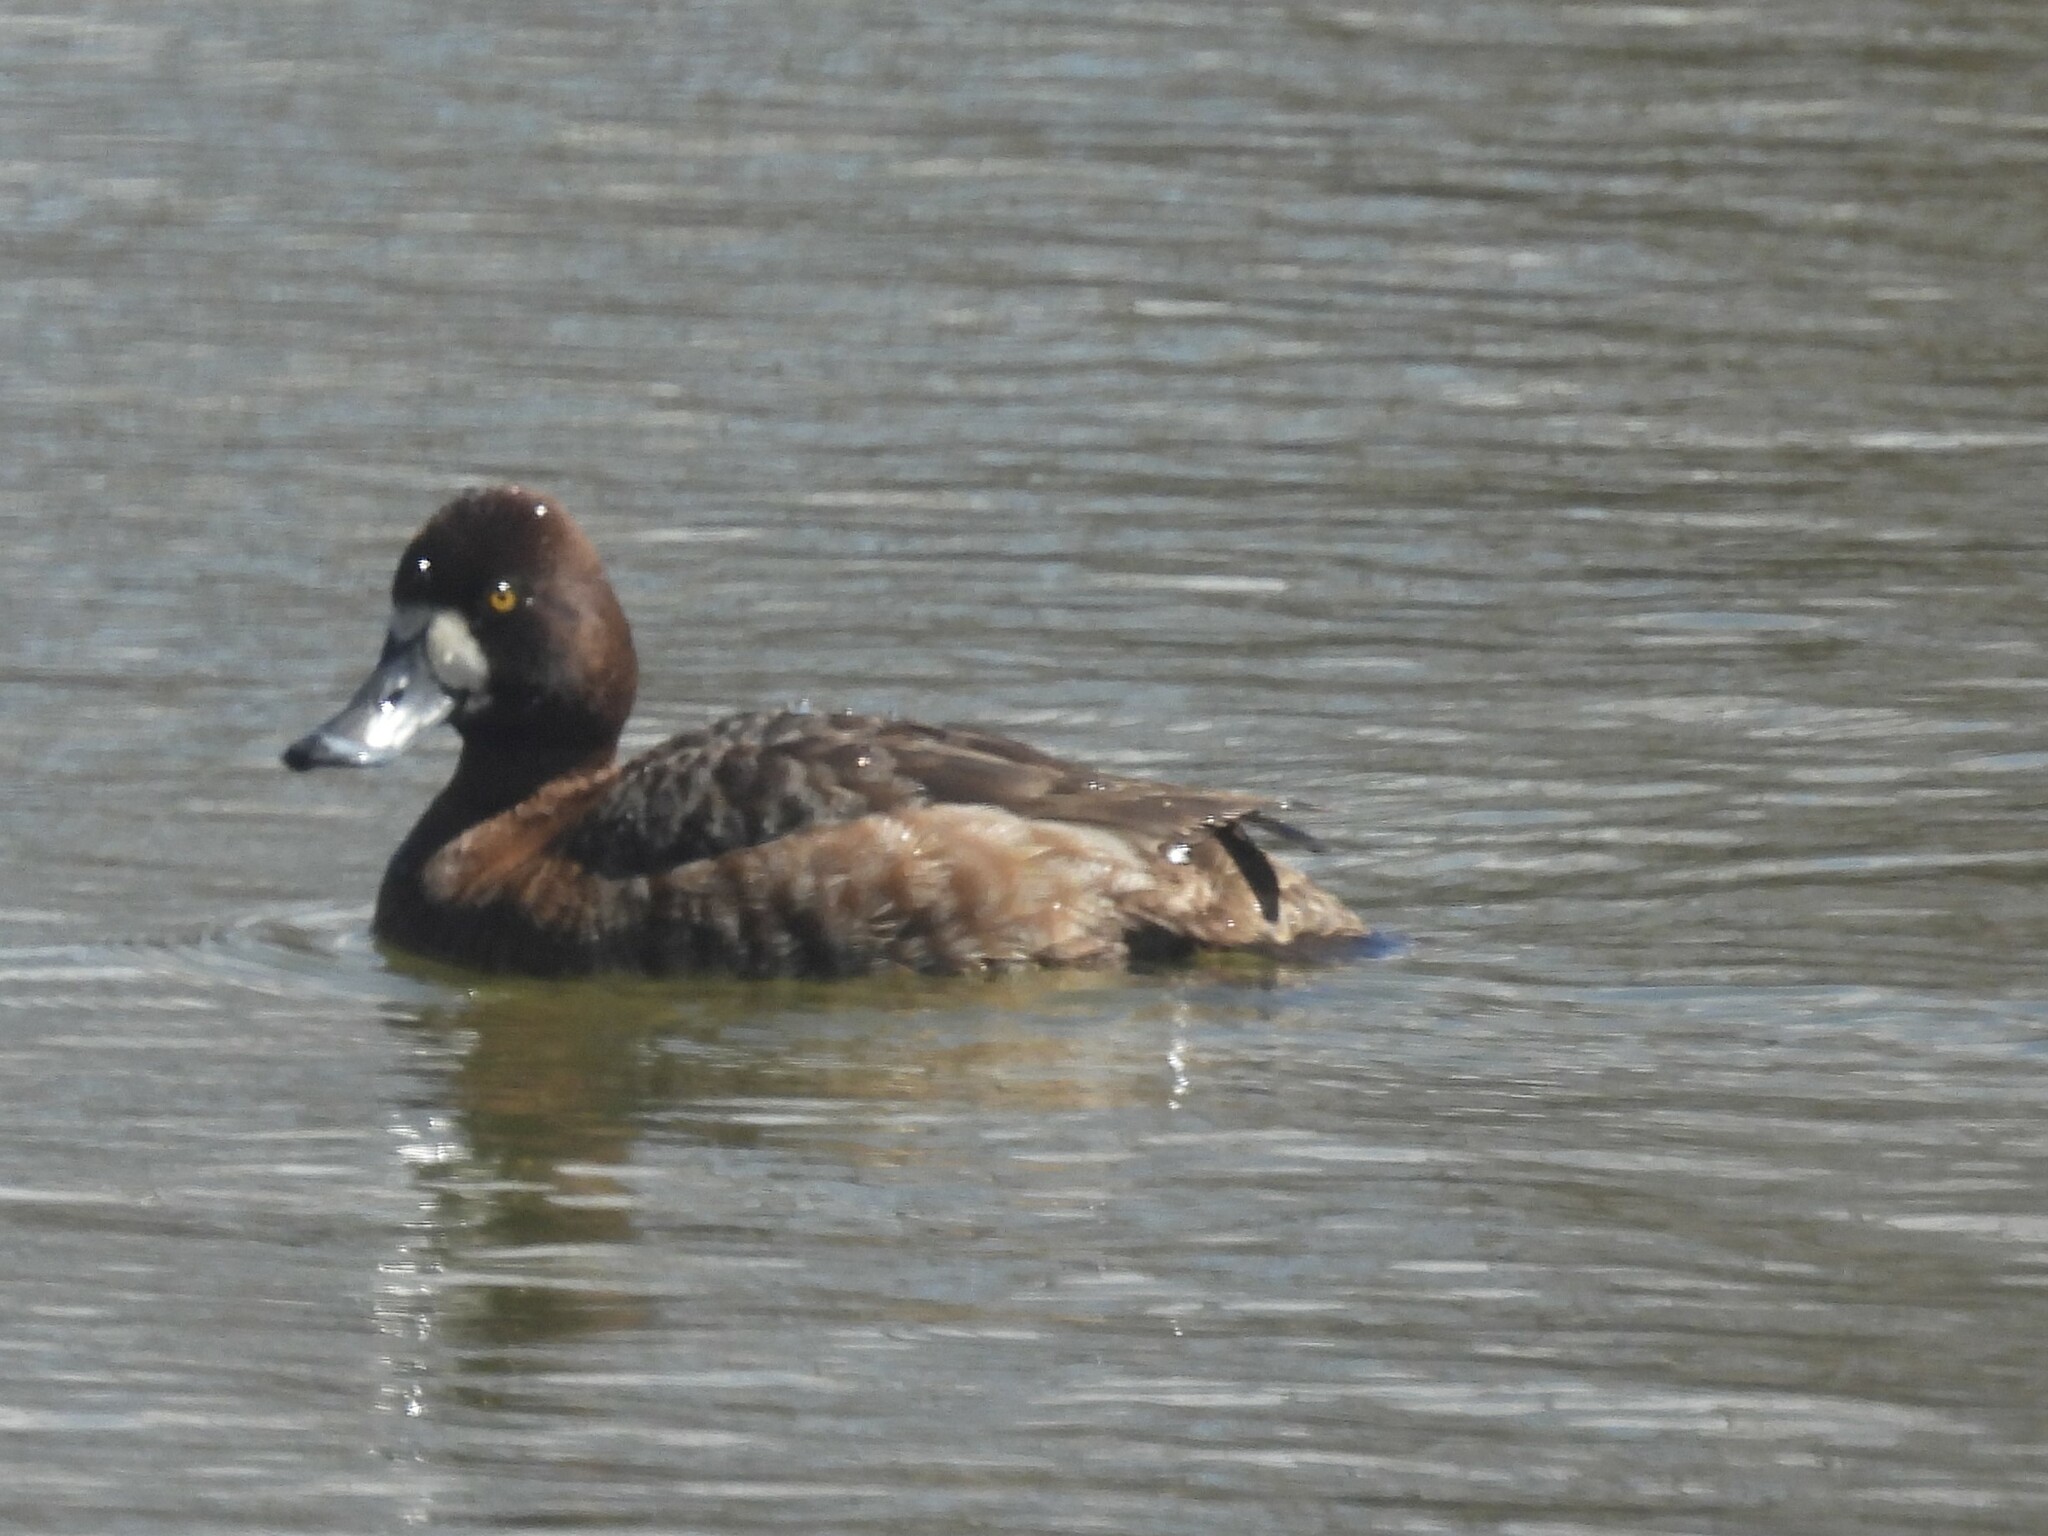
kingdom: Animalia
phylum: Chordata
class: Aves
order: Anseriformes
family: Anatidae
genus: Aythya
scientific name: Aythya marila
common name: Greater scaup
